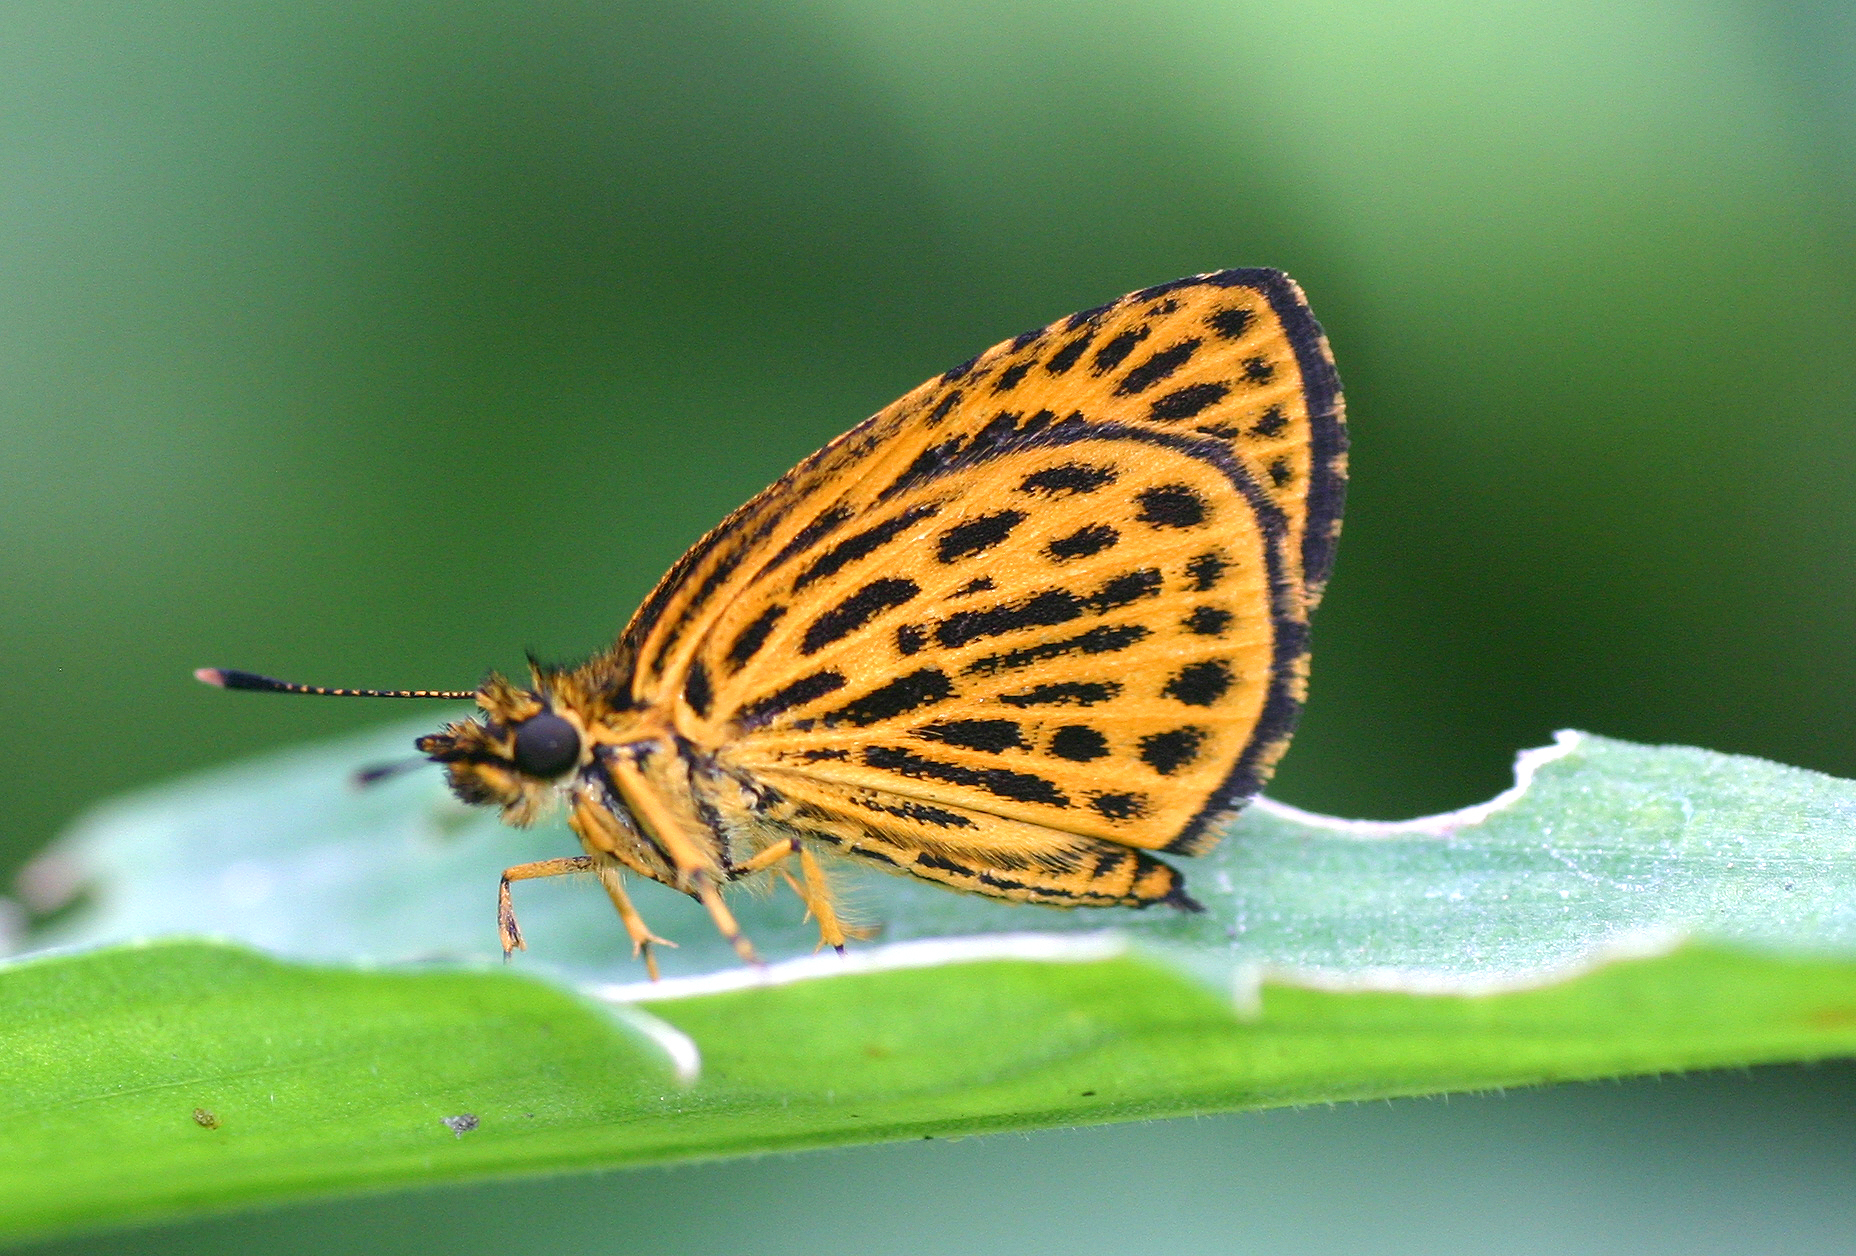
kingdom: Animalia
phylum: Arthropoda
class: Insecta
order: Lepidoptera
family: Hesperiidae
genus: Ampittia
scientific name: Ampittia subvittatus
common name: Tiger hopper
